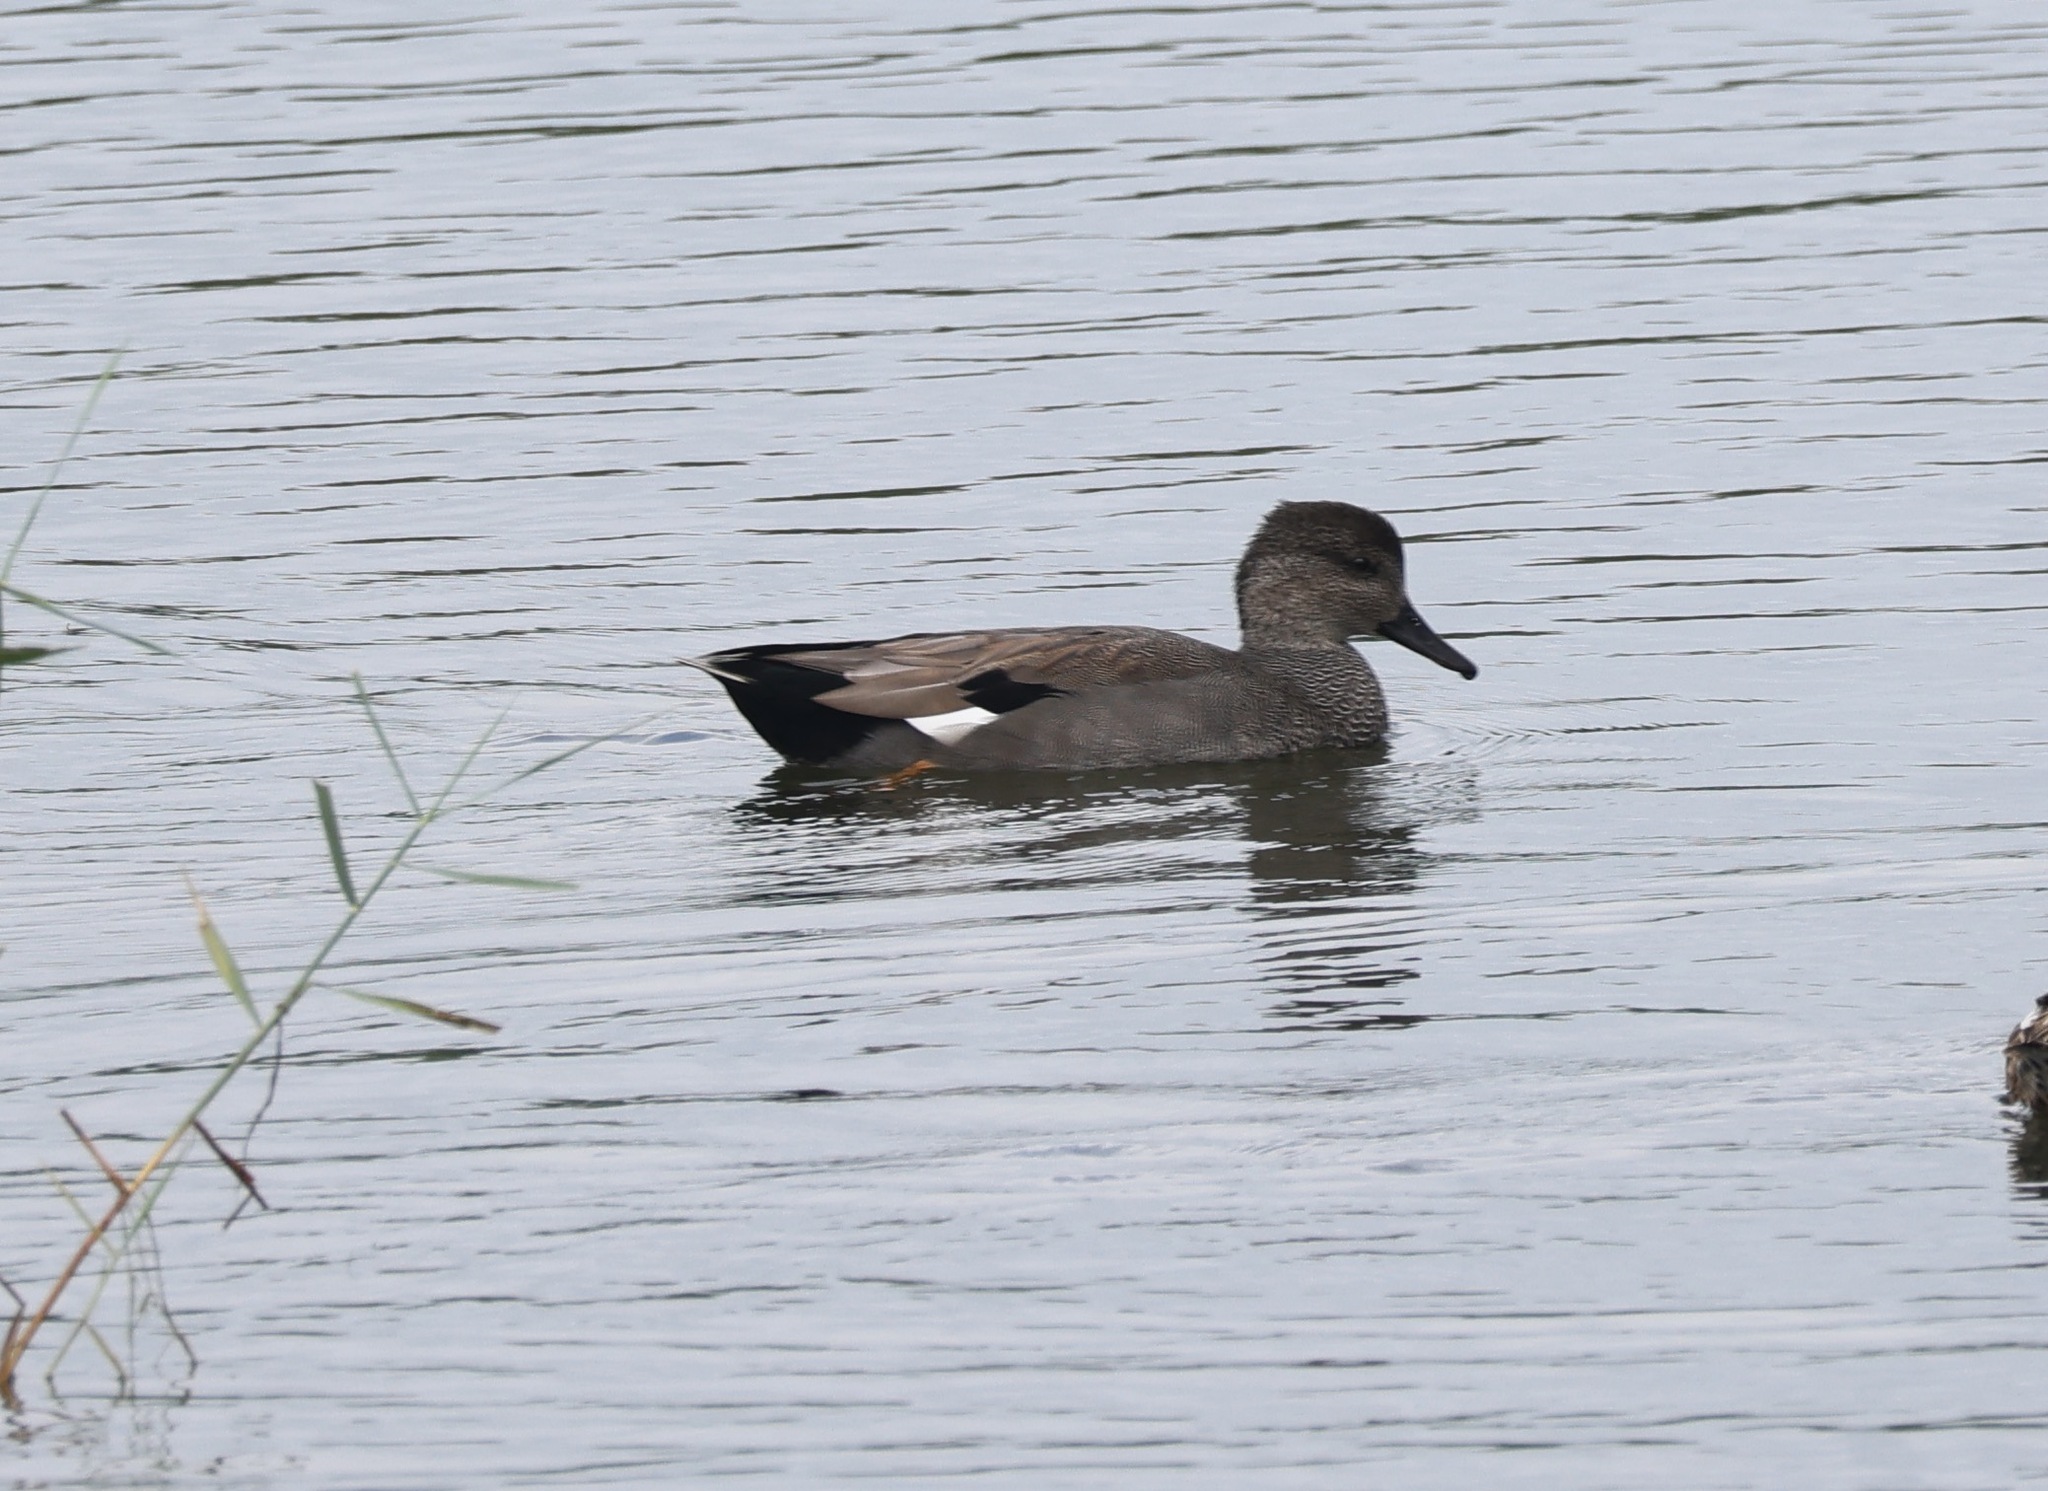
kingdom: Animalia
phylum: Chordata
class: Aves
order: Anseriformes
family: Anatidae
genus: Mareca
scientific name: Mareca strepera
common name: Gadwall
